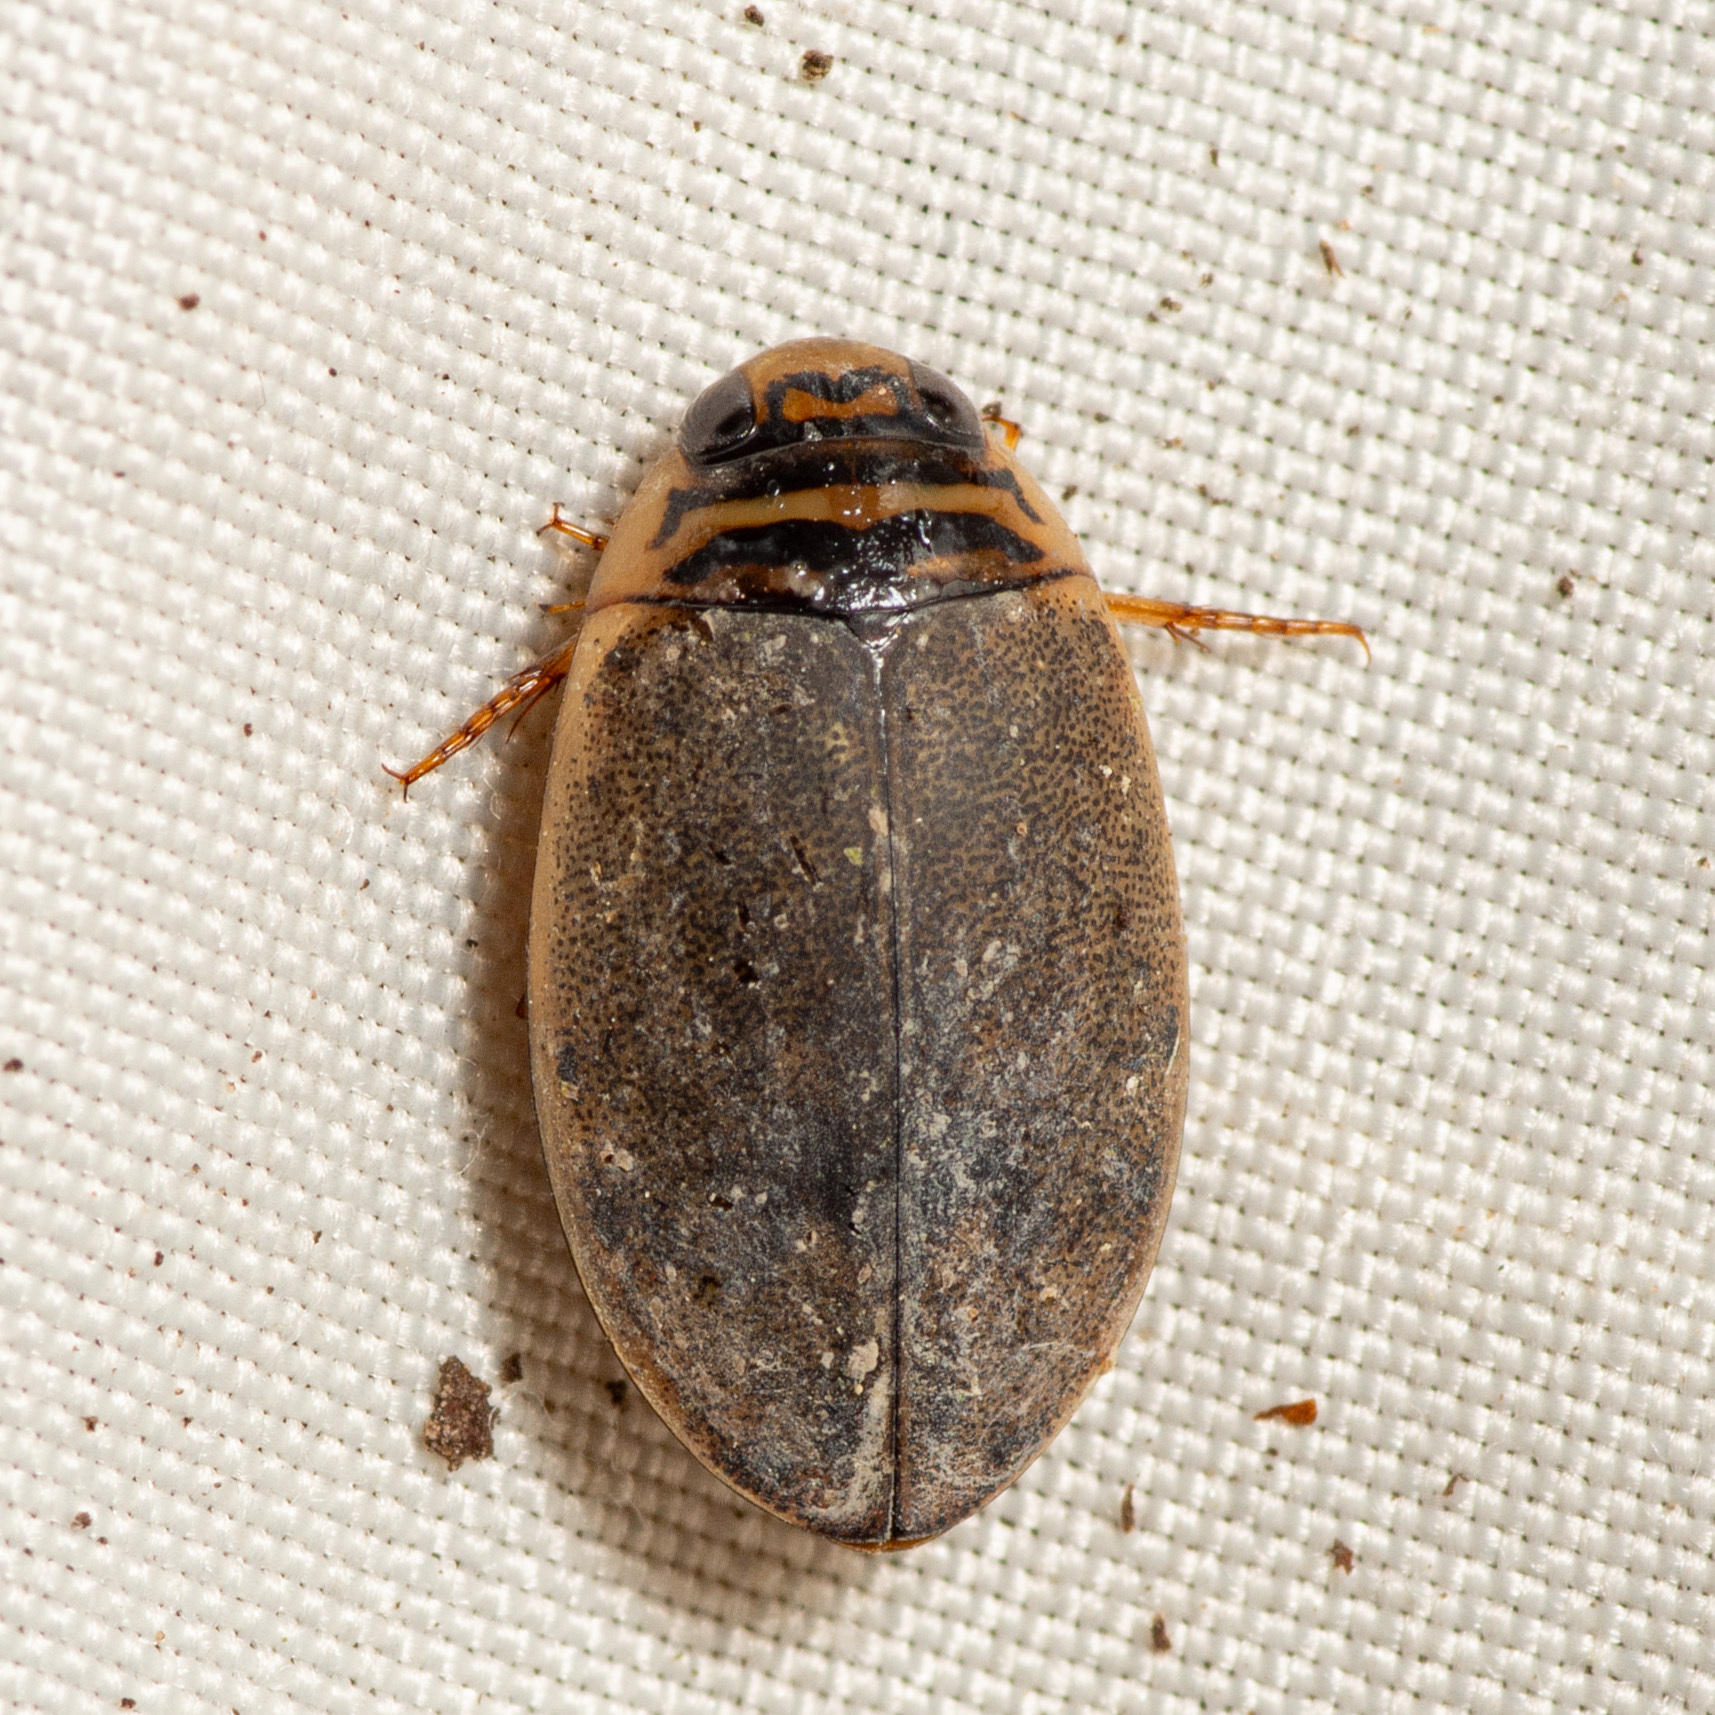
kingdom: Animalia
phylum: Arthropoda
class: Insecta
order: Coleoptera
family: Dytiscidae
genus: Thermonectus
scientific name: Thermonectus nigrofasciatus
